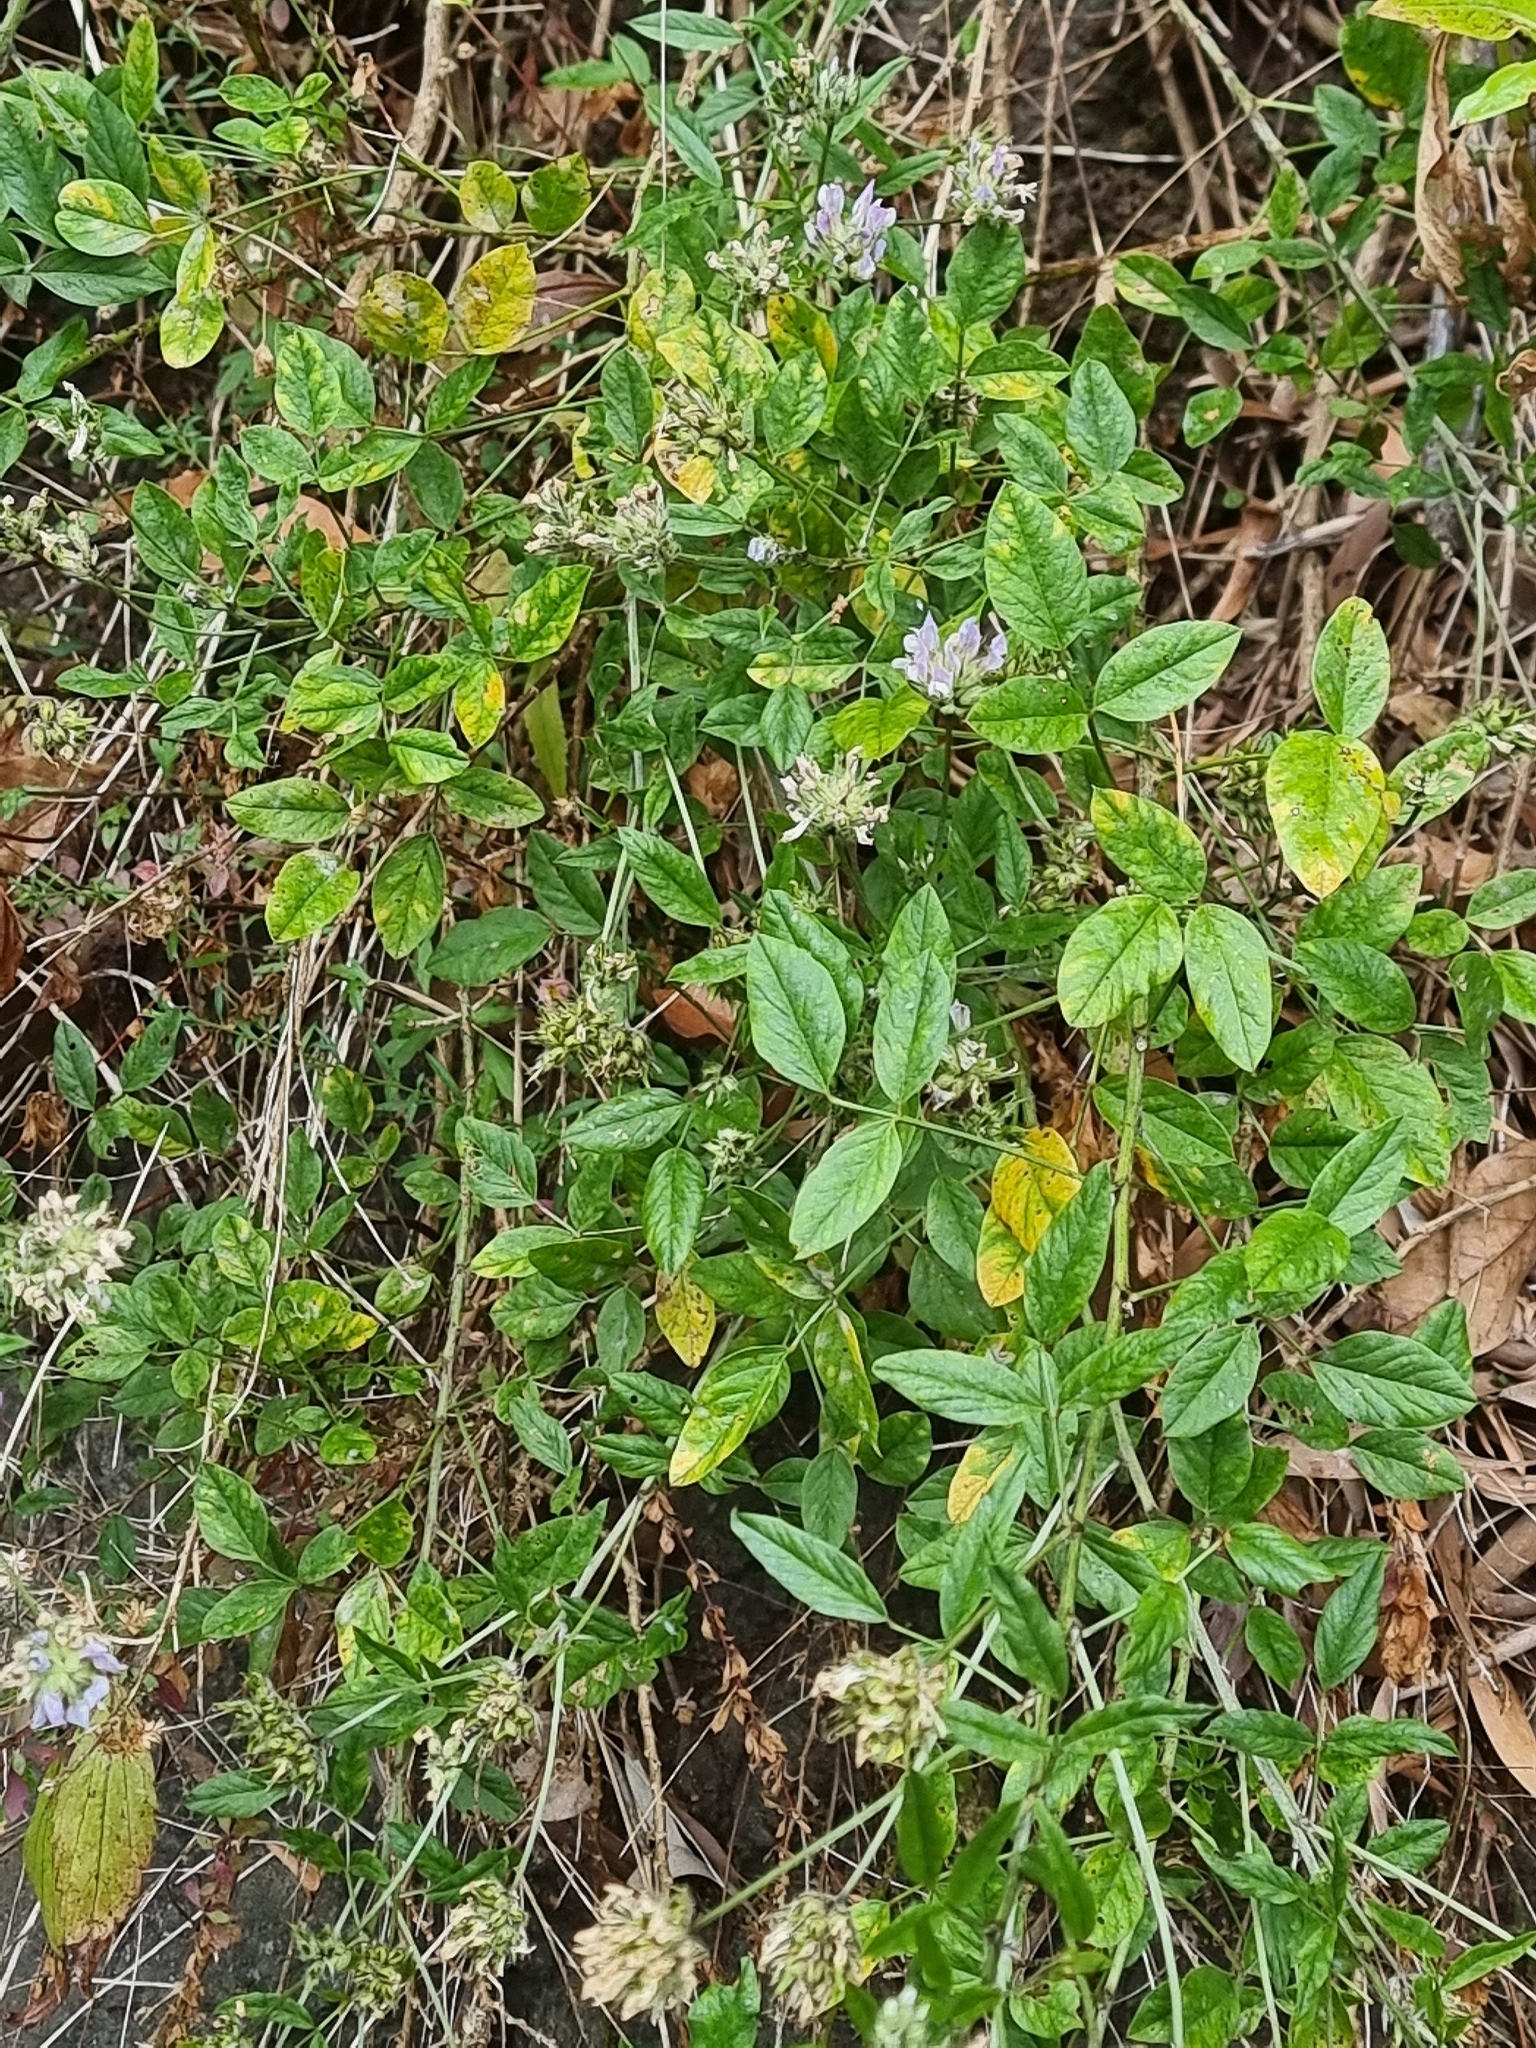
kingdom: Plantae
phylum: Tracheophyta
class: Magnoliopsida
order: Fabales
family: Fabaceae
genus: Bituminaria
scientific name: Bituminaria bituminosa
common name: Arabian pea
